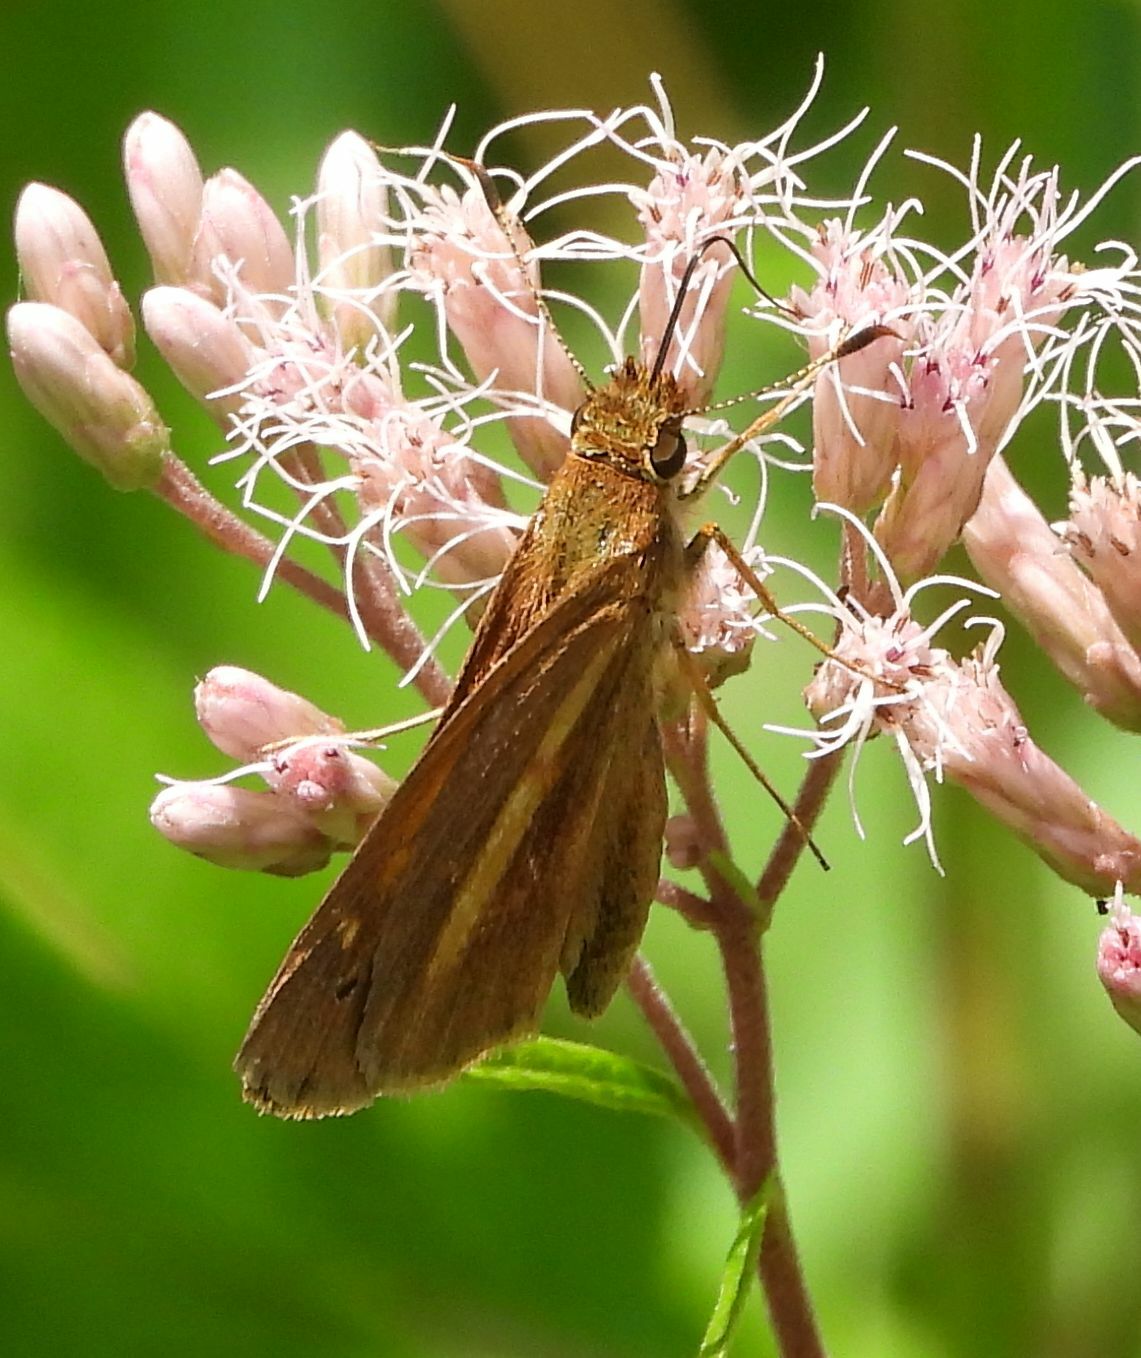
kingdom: Animalia
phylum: Arthropoda
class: Insecta
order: Lepidoptera
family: Hesperiidae
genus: Poanes
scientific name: Poanes viator
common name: Broad-winged skipper
